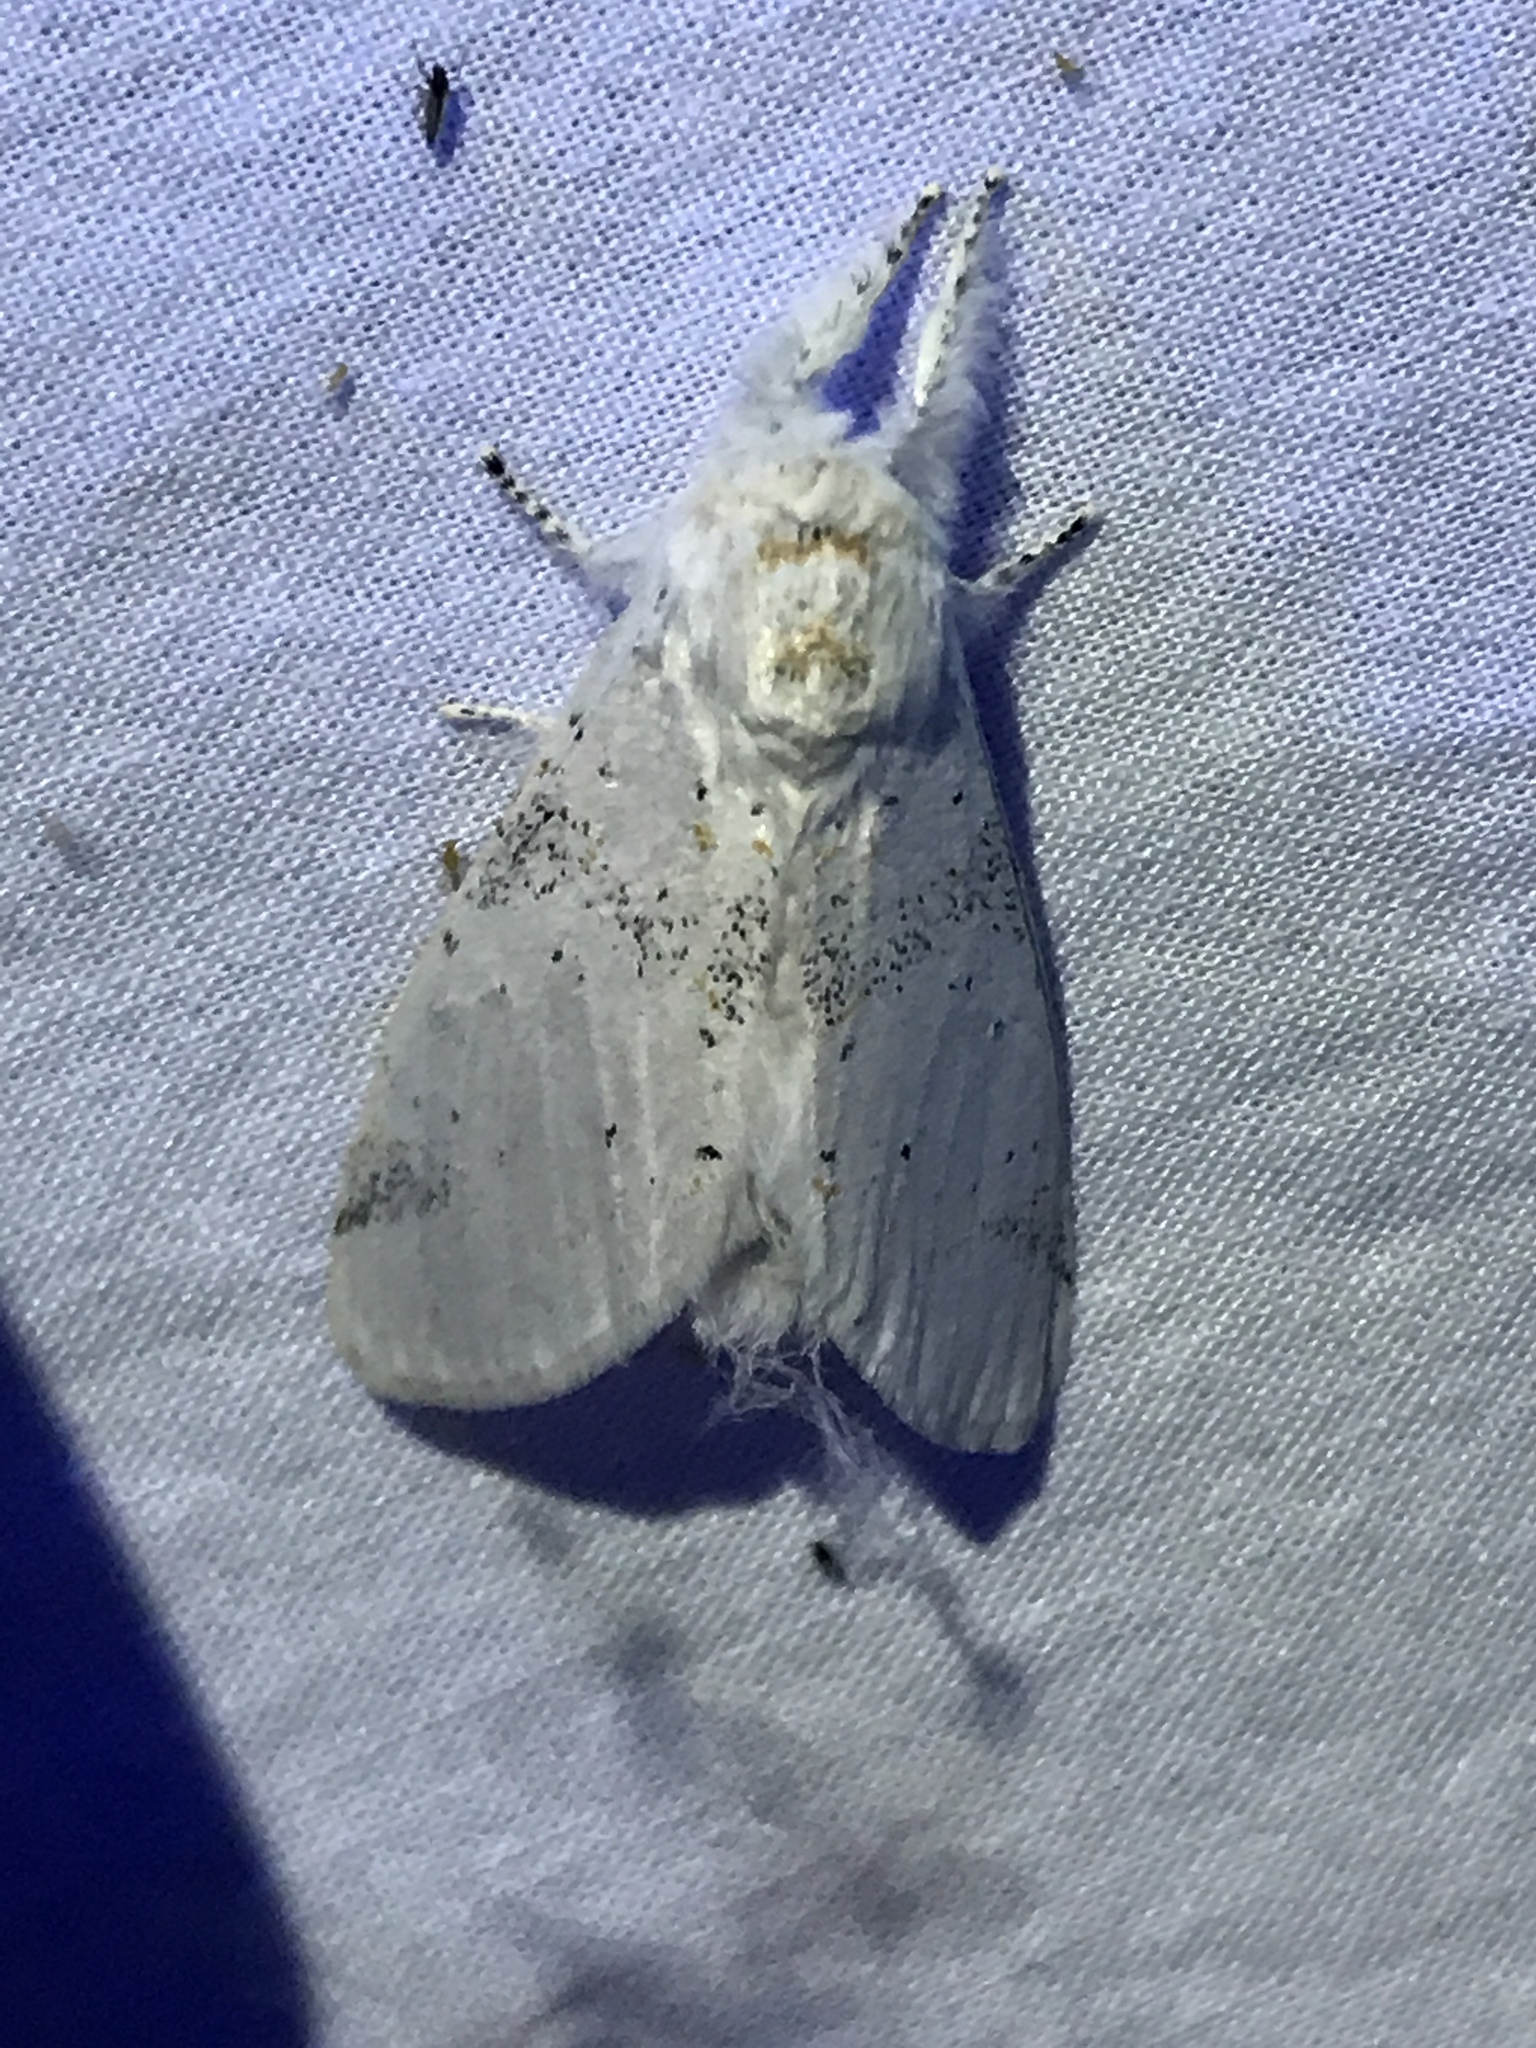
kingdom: Animalia
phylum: Arthropoda
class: Insecta
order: Lepidoptera
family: Notodontidae
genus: Furcula
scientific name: Furcula nivea
